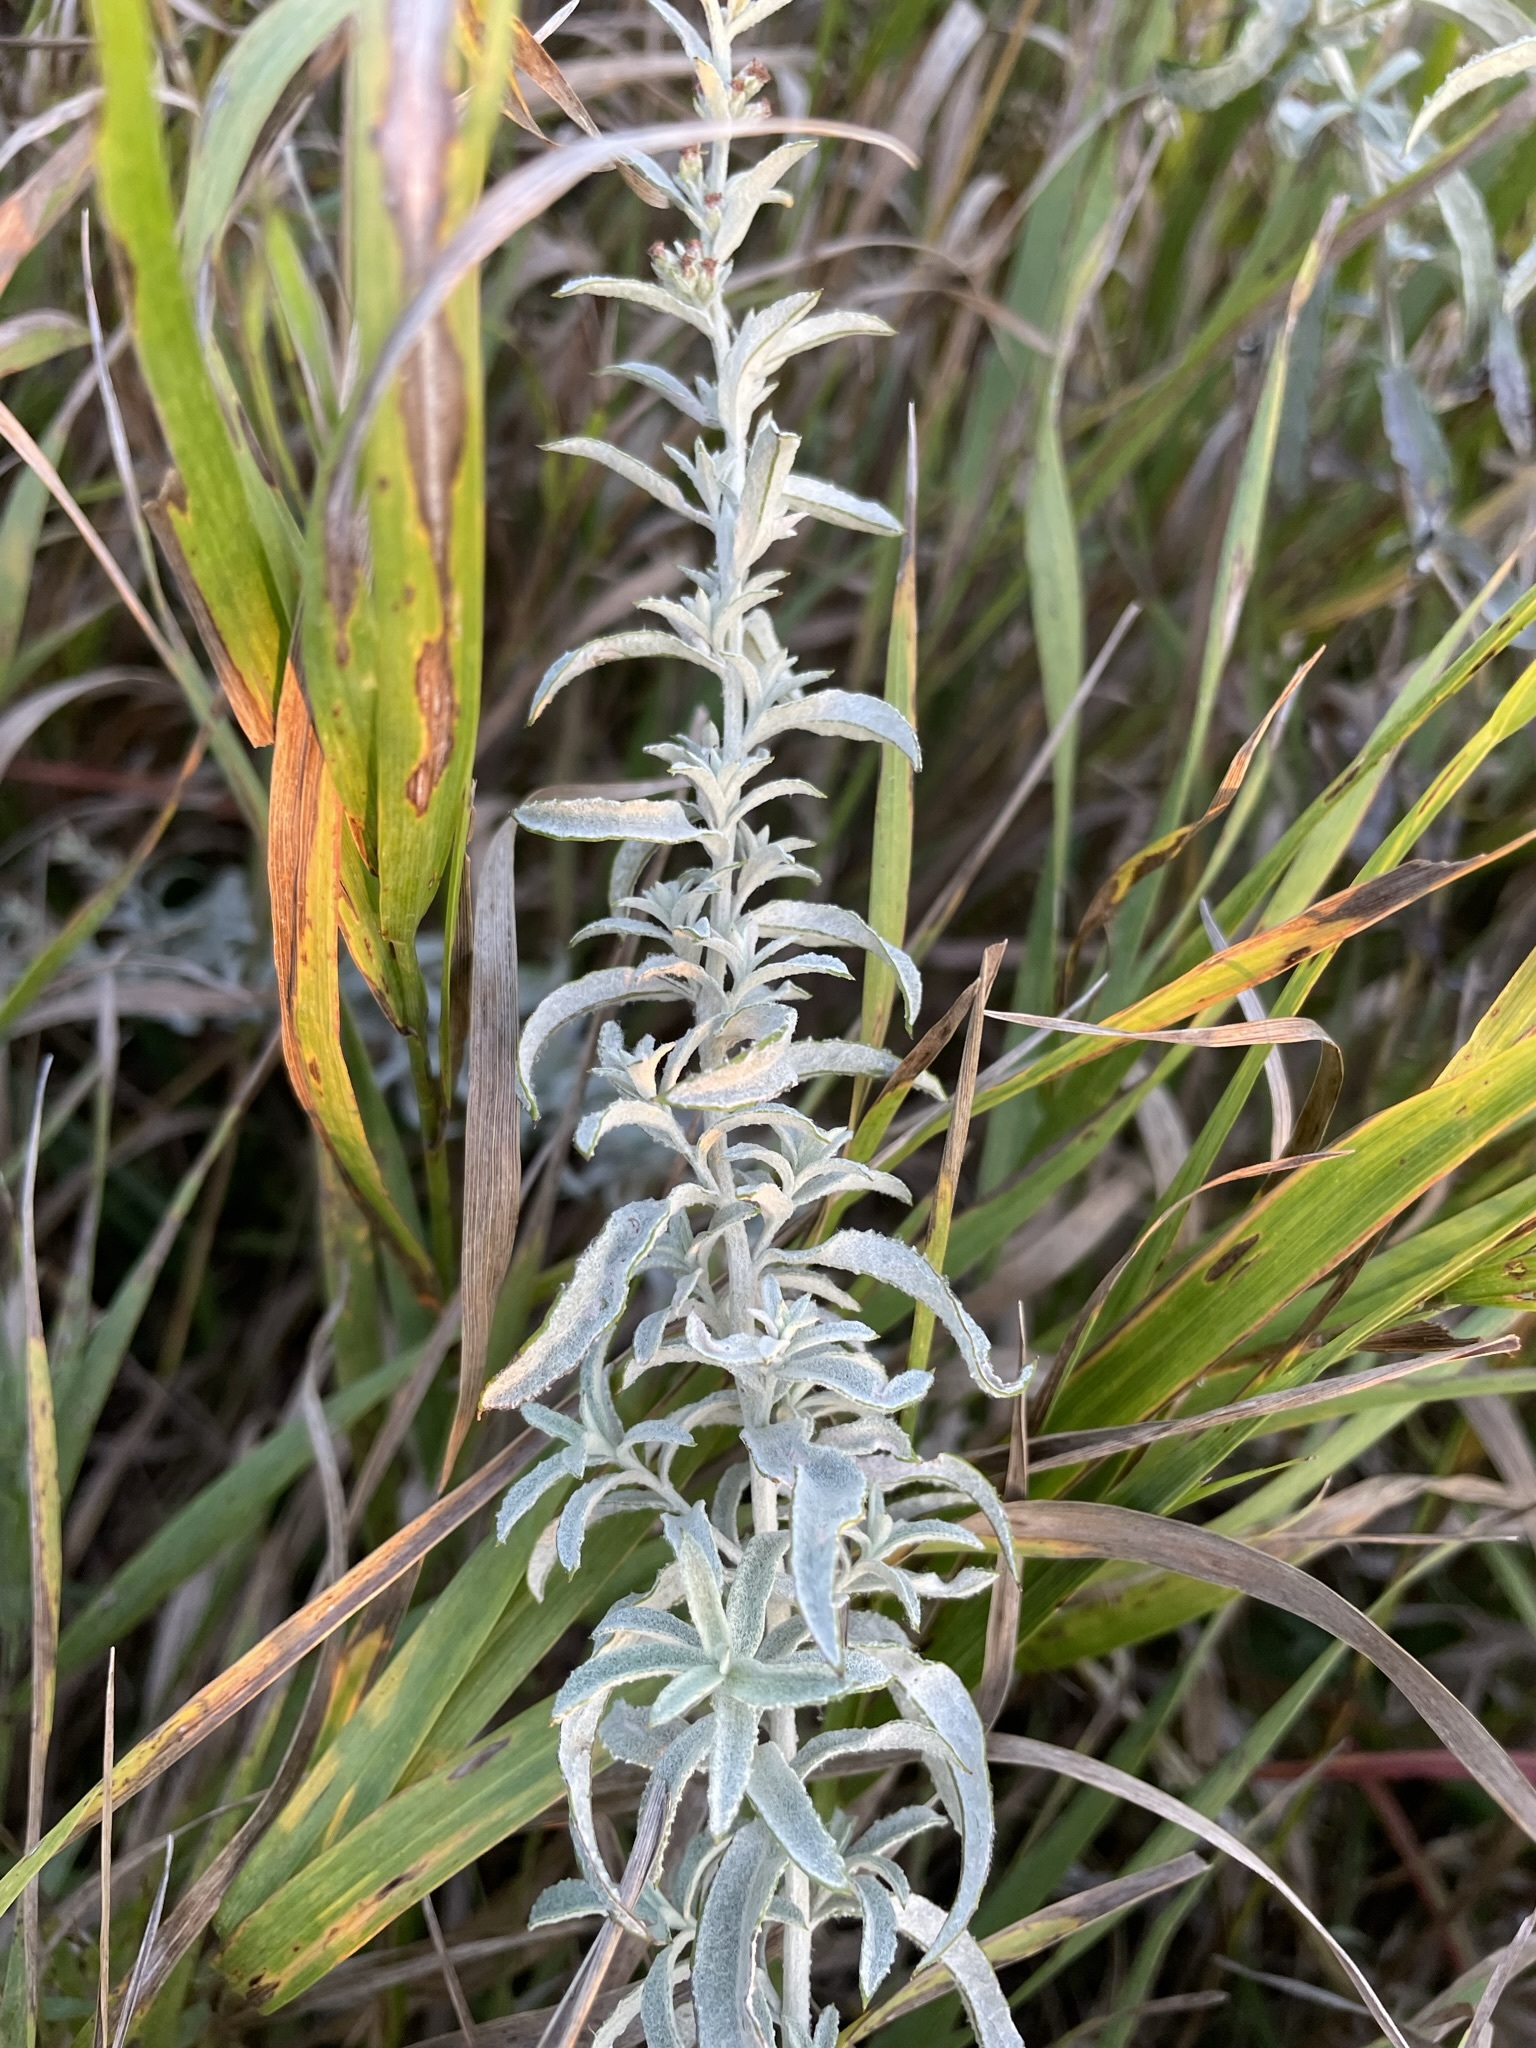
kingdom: Plantae
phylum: Tracheophyta
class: Magnoliopsida
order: Asterales
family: Asteraceae
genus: Artemisia
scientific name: Artemisia ludoviciana
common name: Western mugwort
